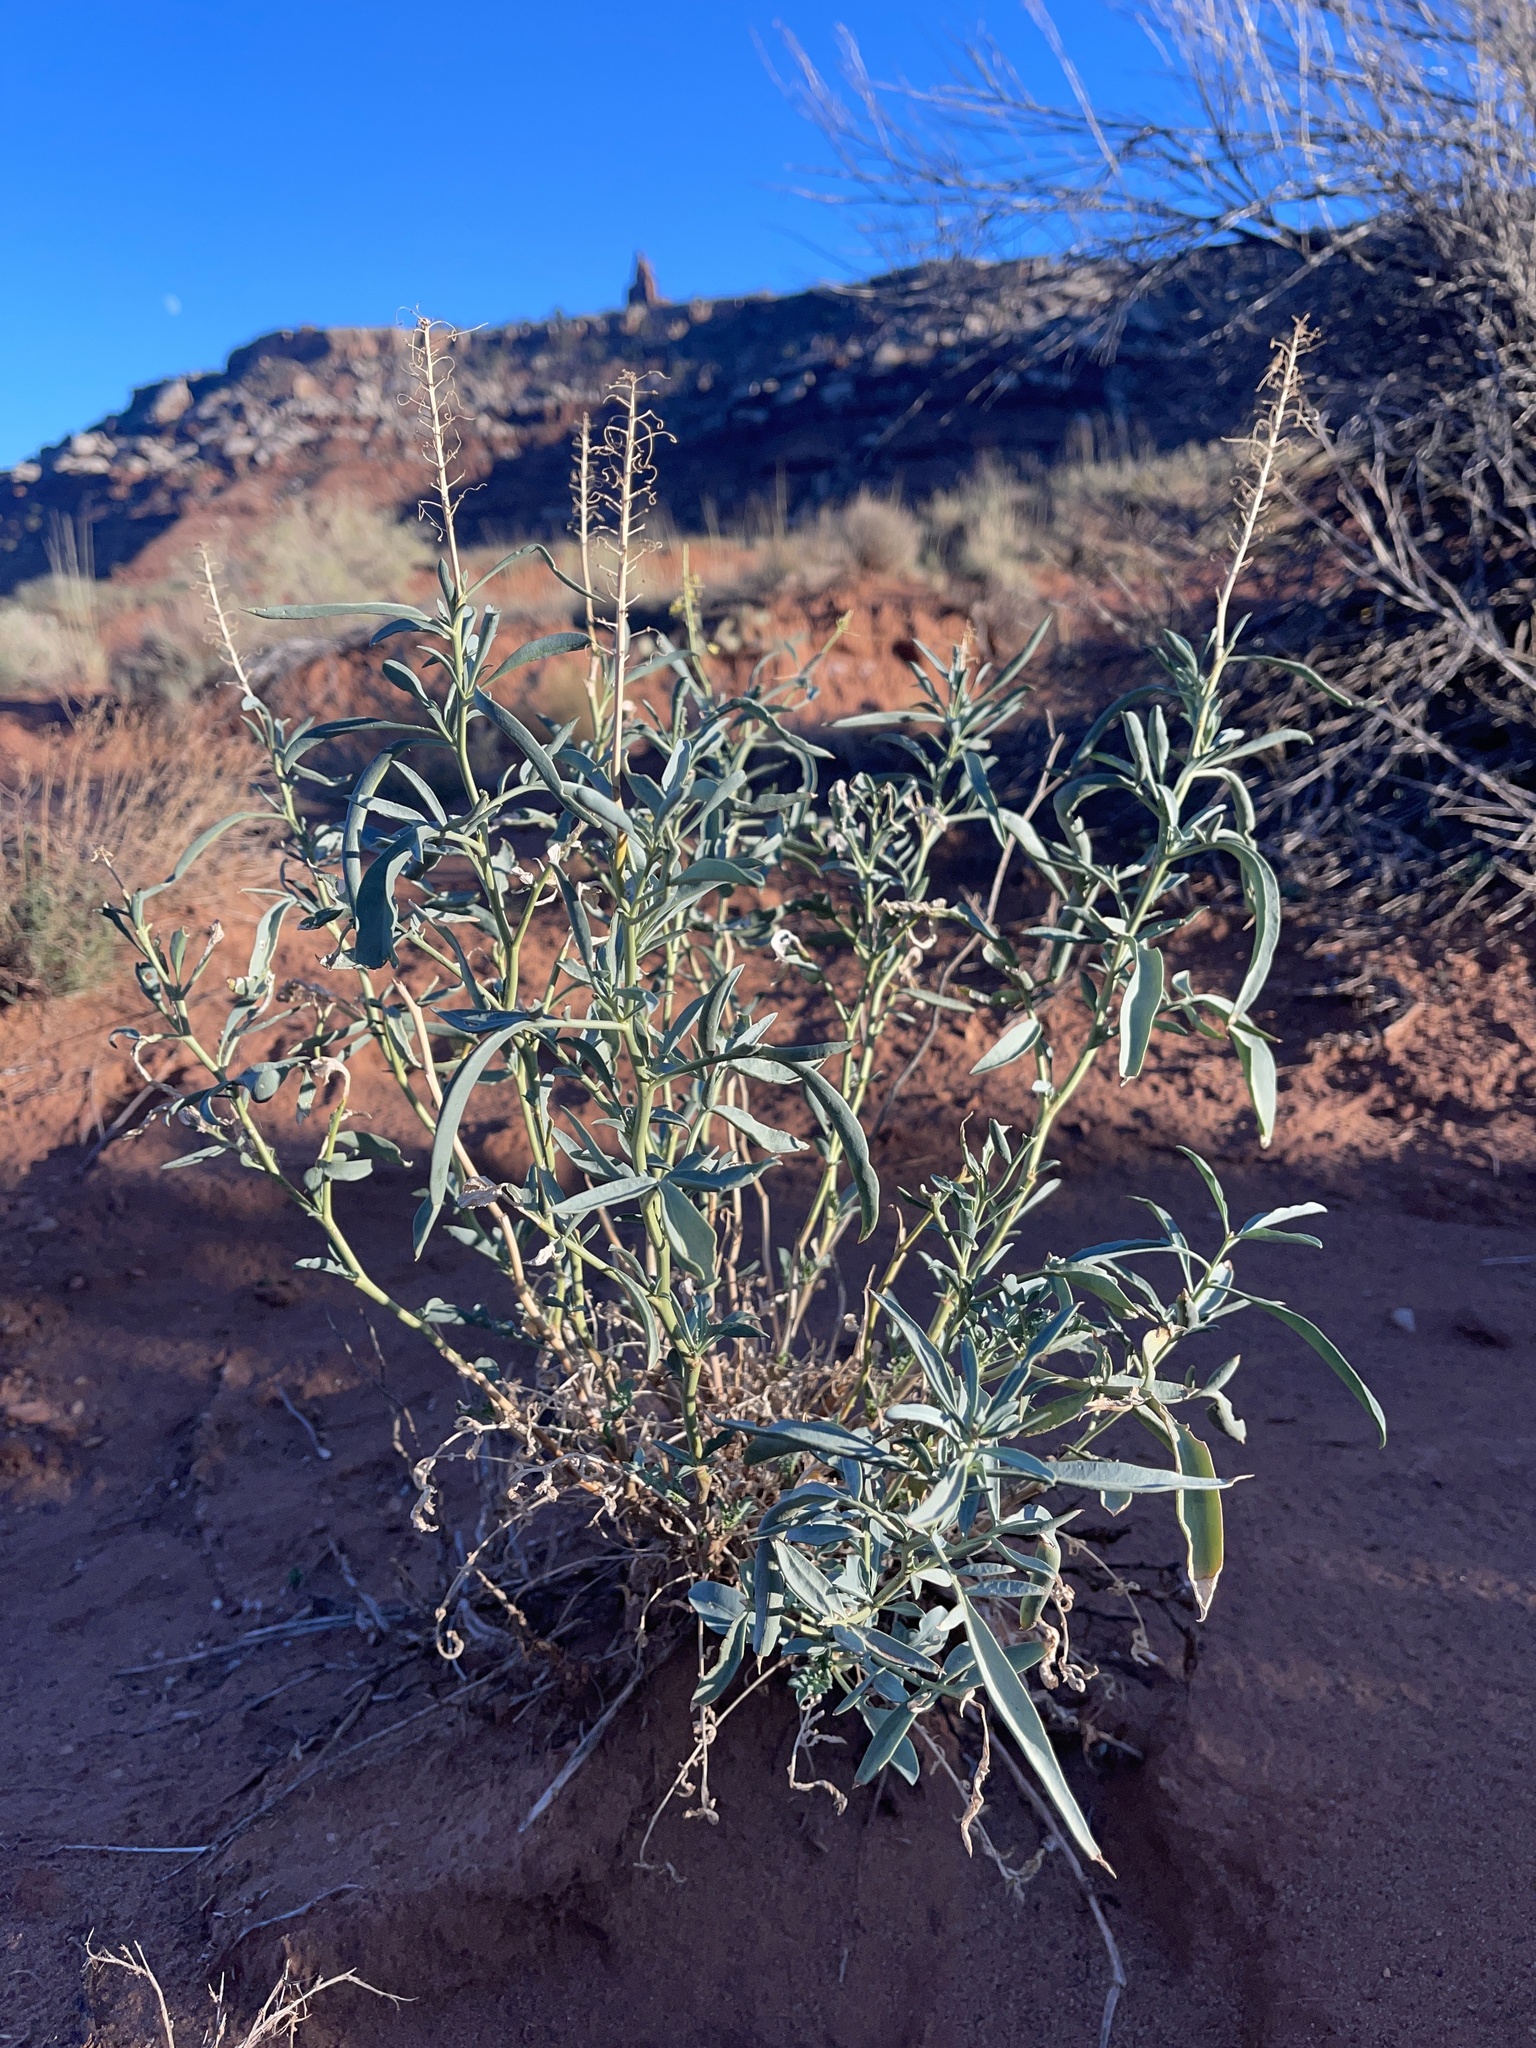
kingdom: Plantae
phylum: Tracheophyta
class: Magnoliopsida
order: Brassicales
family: Brassicaceae
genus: Stanleya
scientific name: Stanleya pinnata
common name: Prince's-plume
